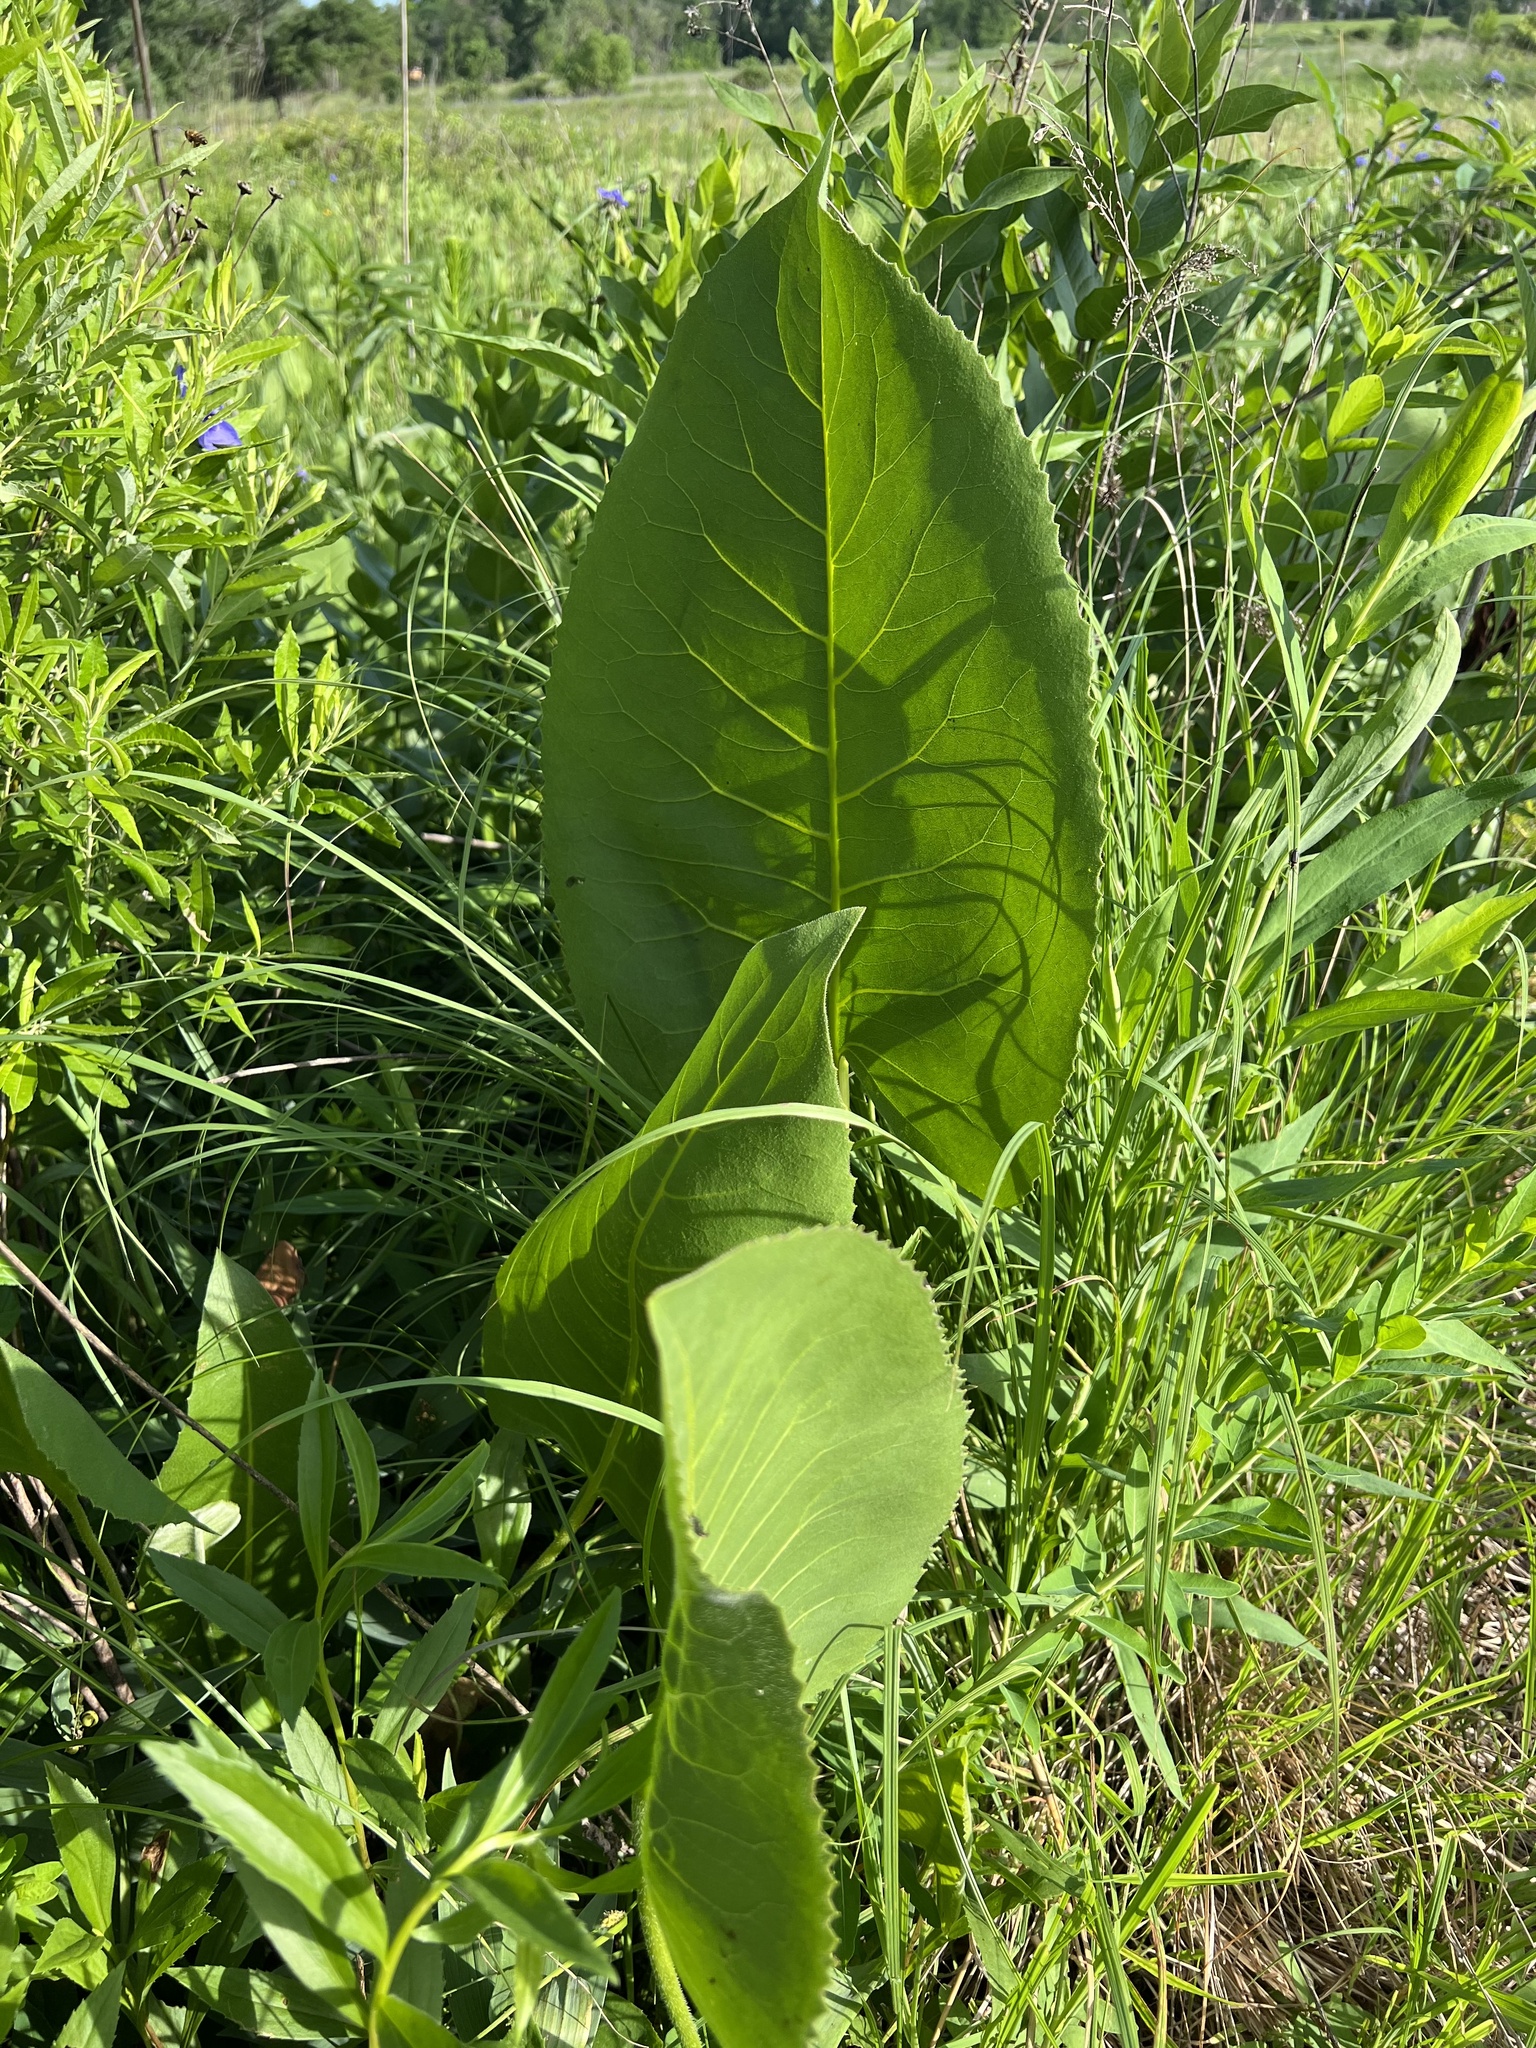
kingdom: Plantae
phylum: Tracheophyta
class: Magnoliopsida
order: Asterales
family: Asteraceae
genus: Silphium
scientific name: Silphium terebinthinaceum
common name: Basal-leaf rosinweed
